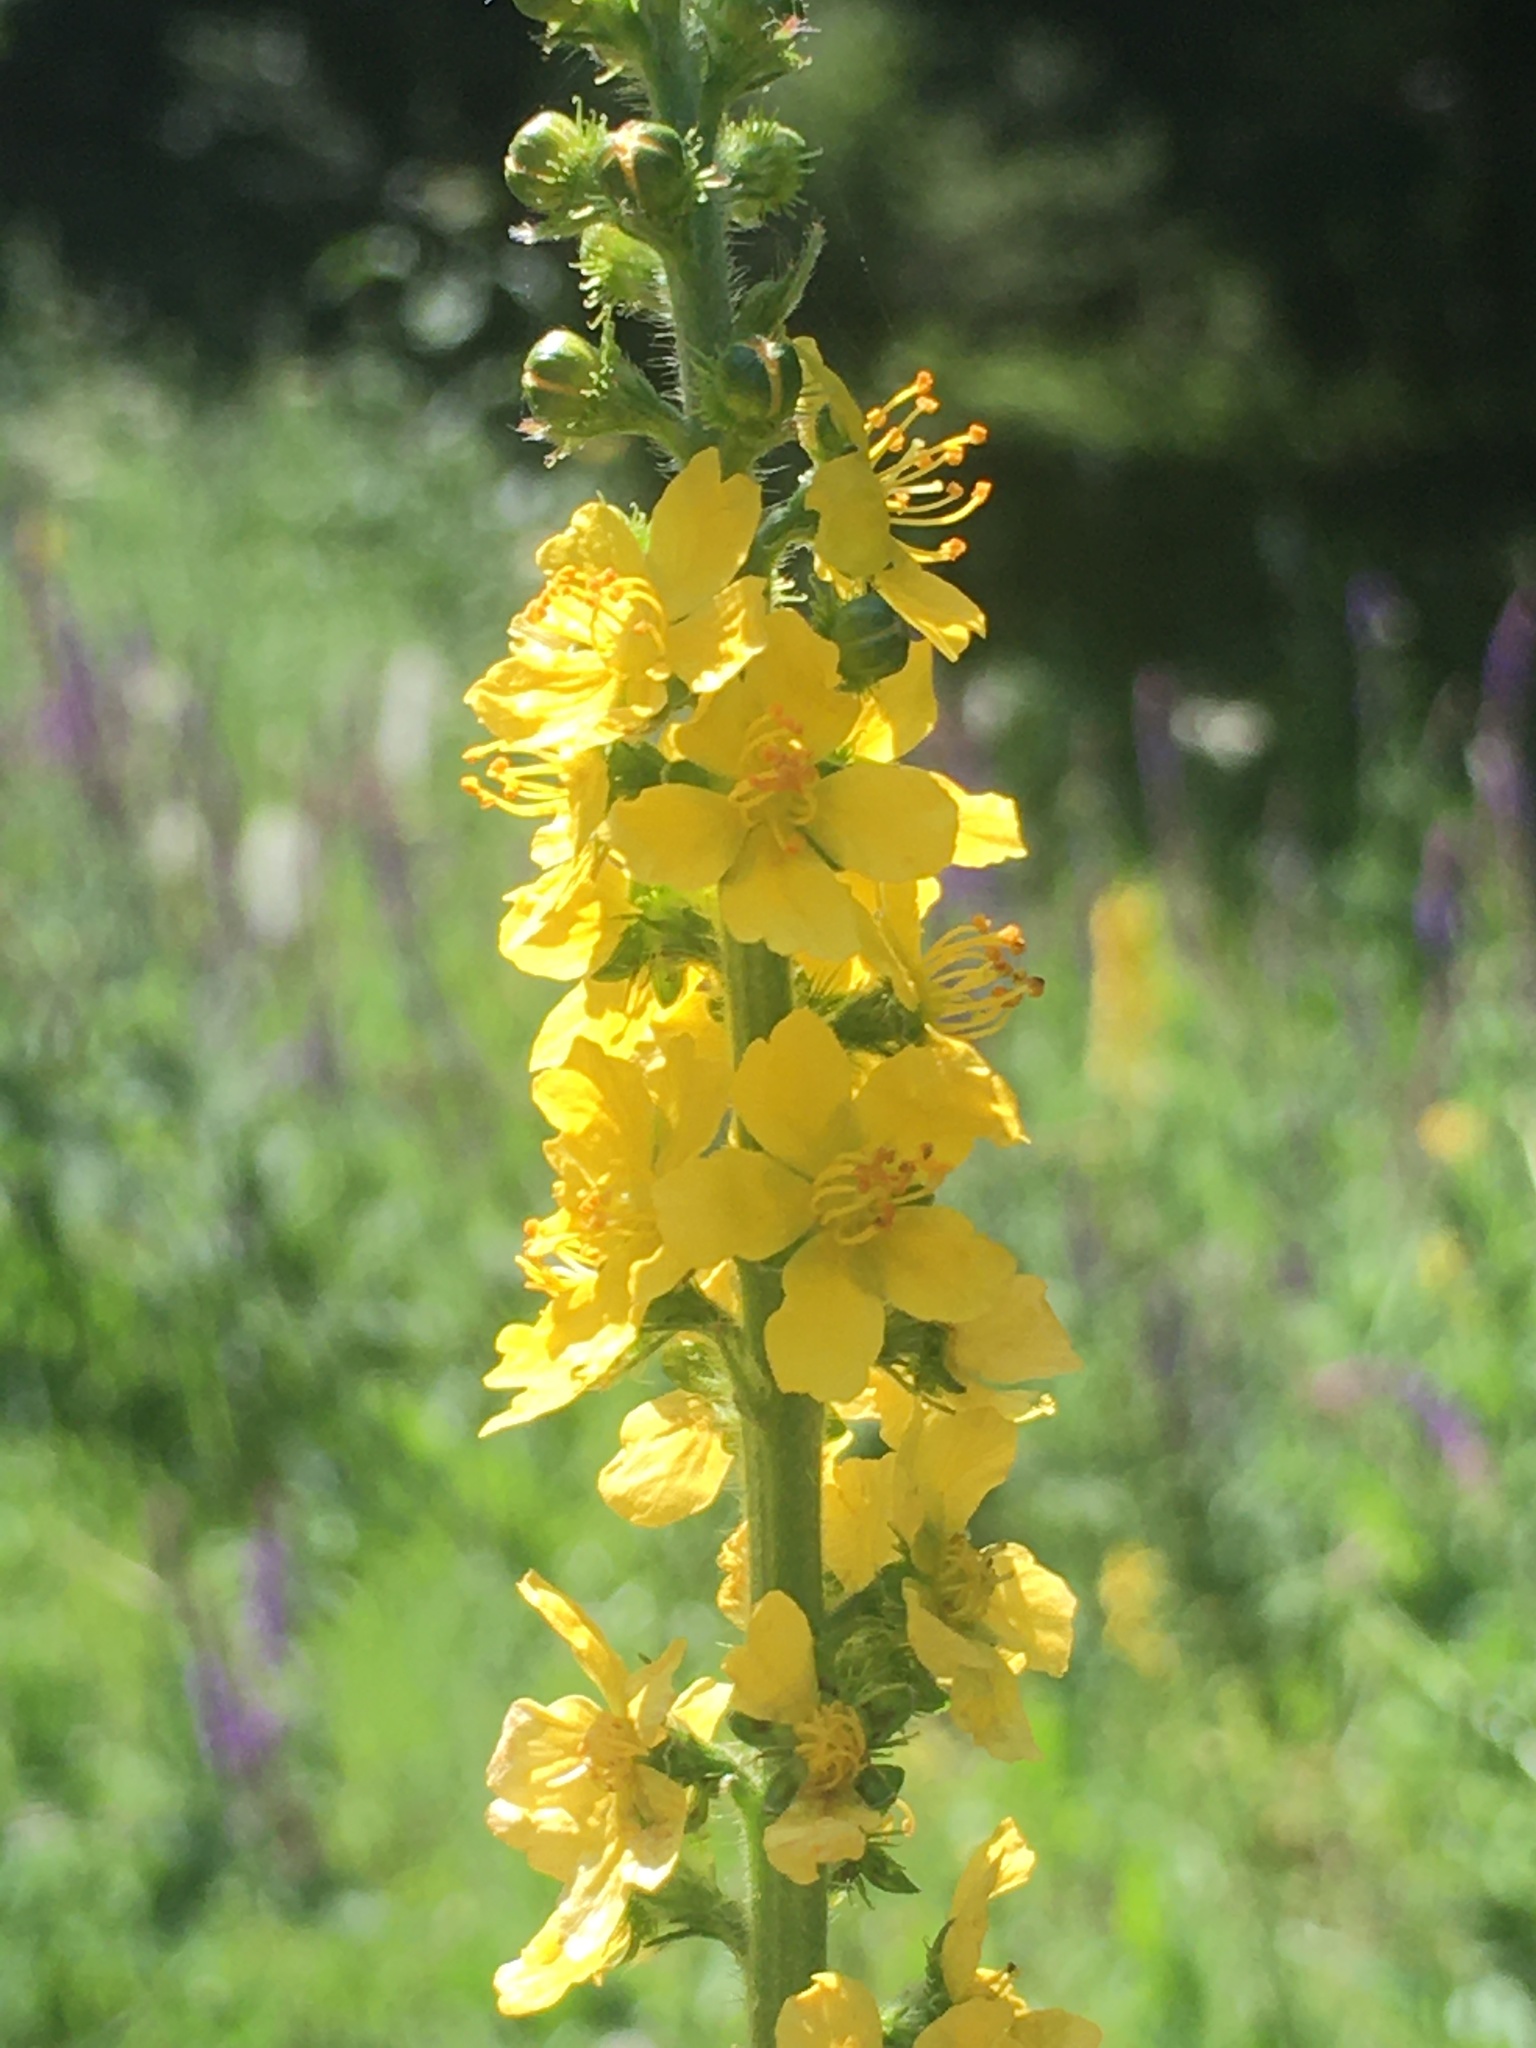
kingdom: Plantae
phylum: Tracheophyta
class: Magnoliopsida
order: Rosales
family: Rosaceae
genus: Agrimonia
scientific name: Agrimonia eupatoria
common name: Agrimony
